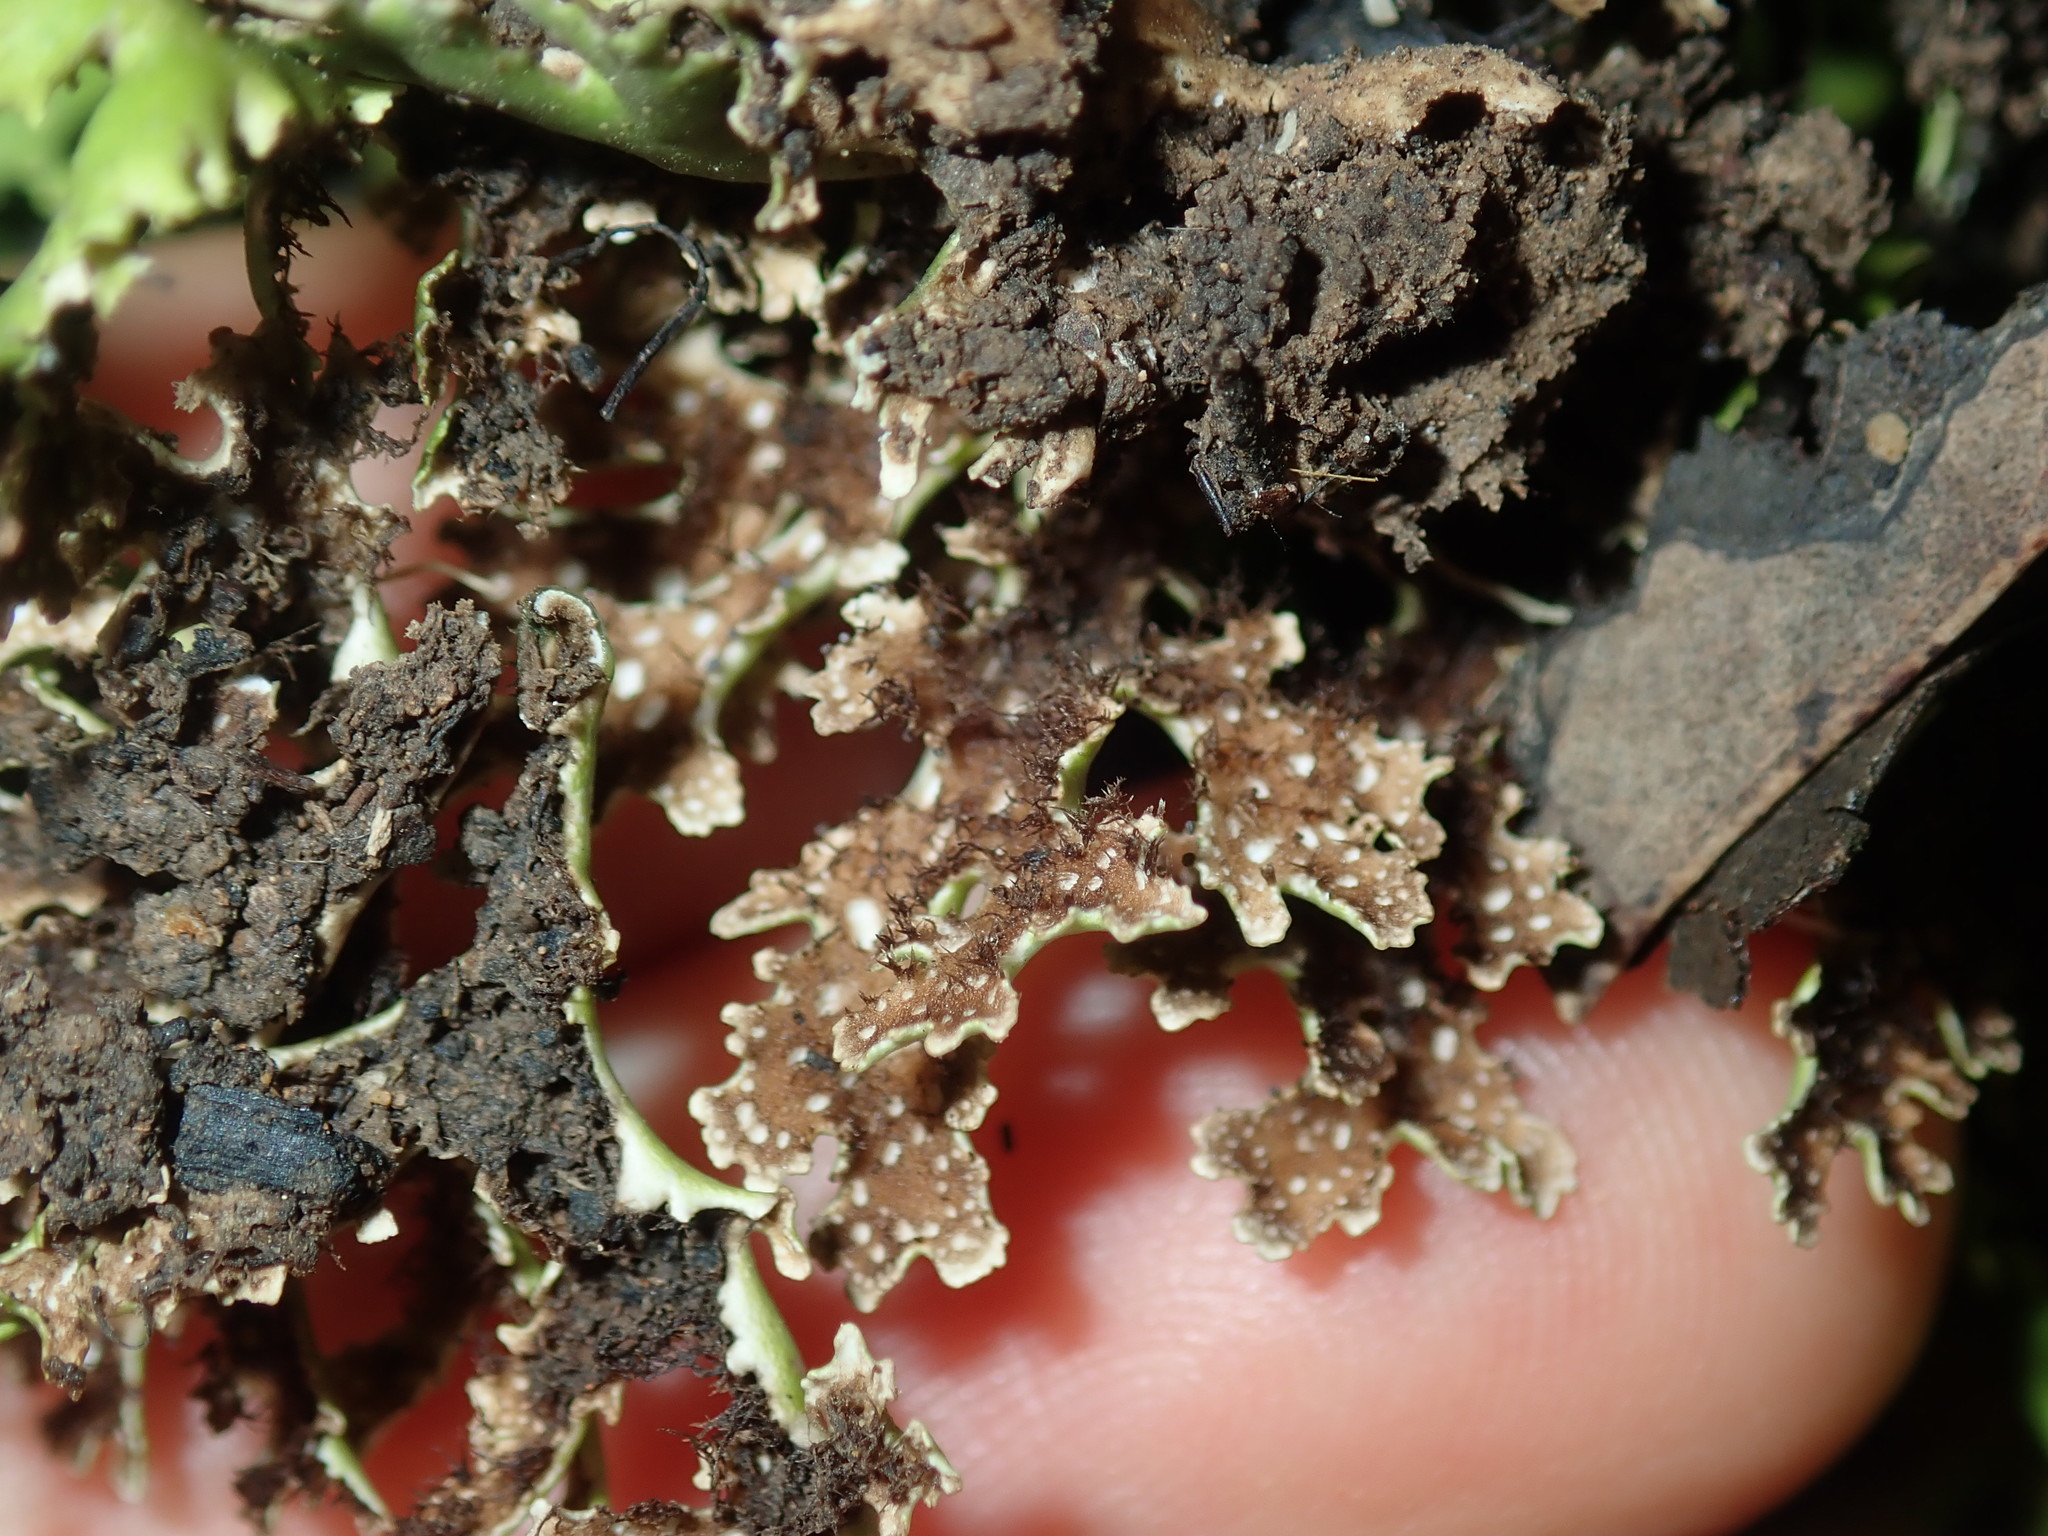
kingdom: Fungi
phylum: Ascomycota
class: Lecanoromycetes
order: Lecanorales
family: Cladoniaceae
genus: Cladia
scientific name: Cladia muelleri
